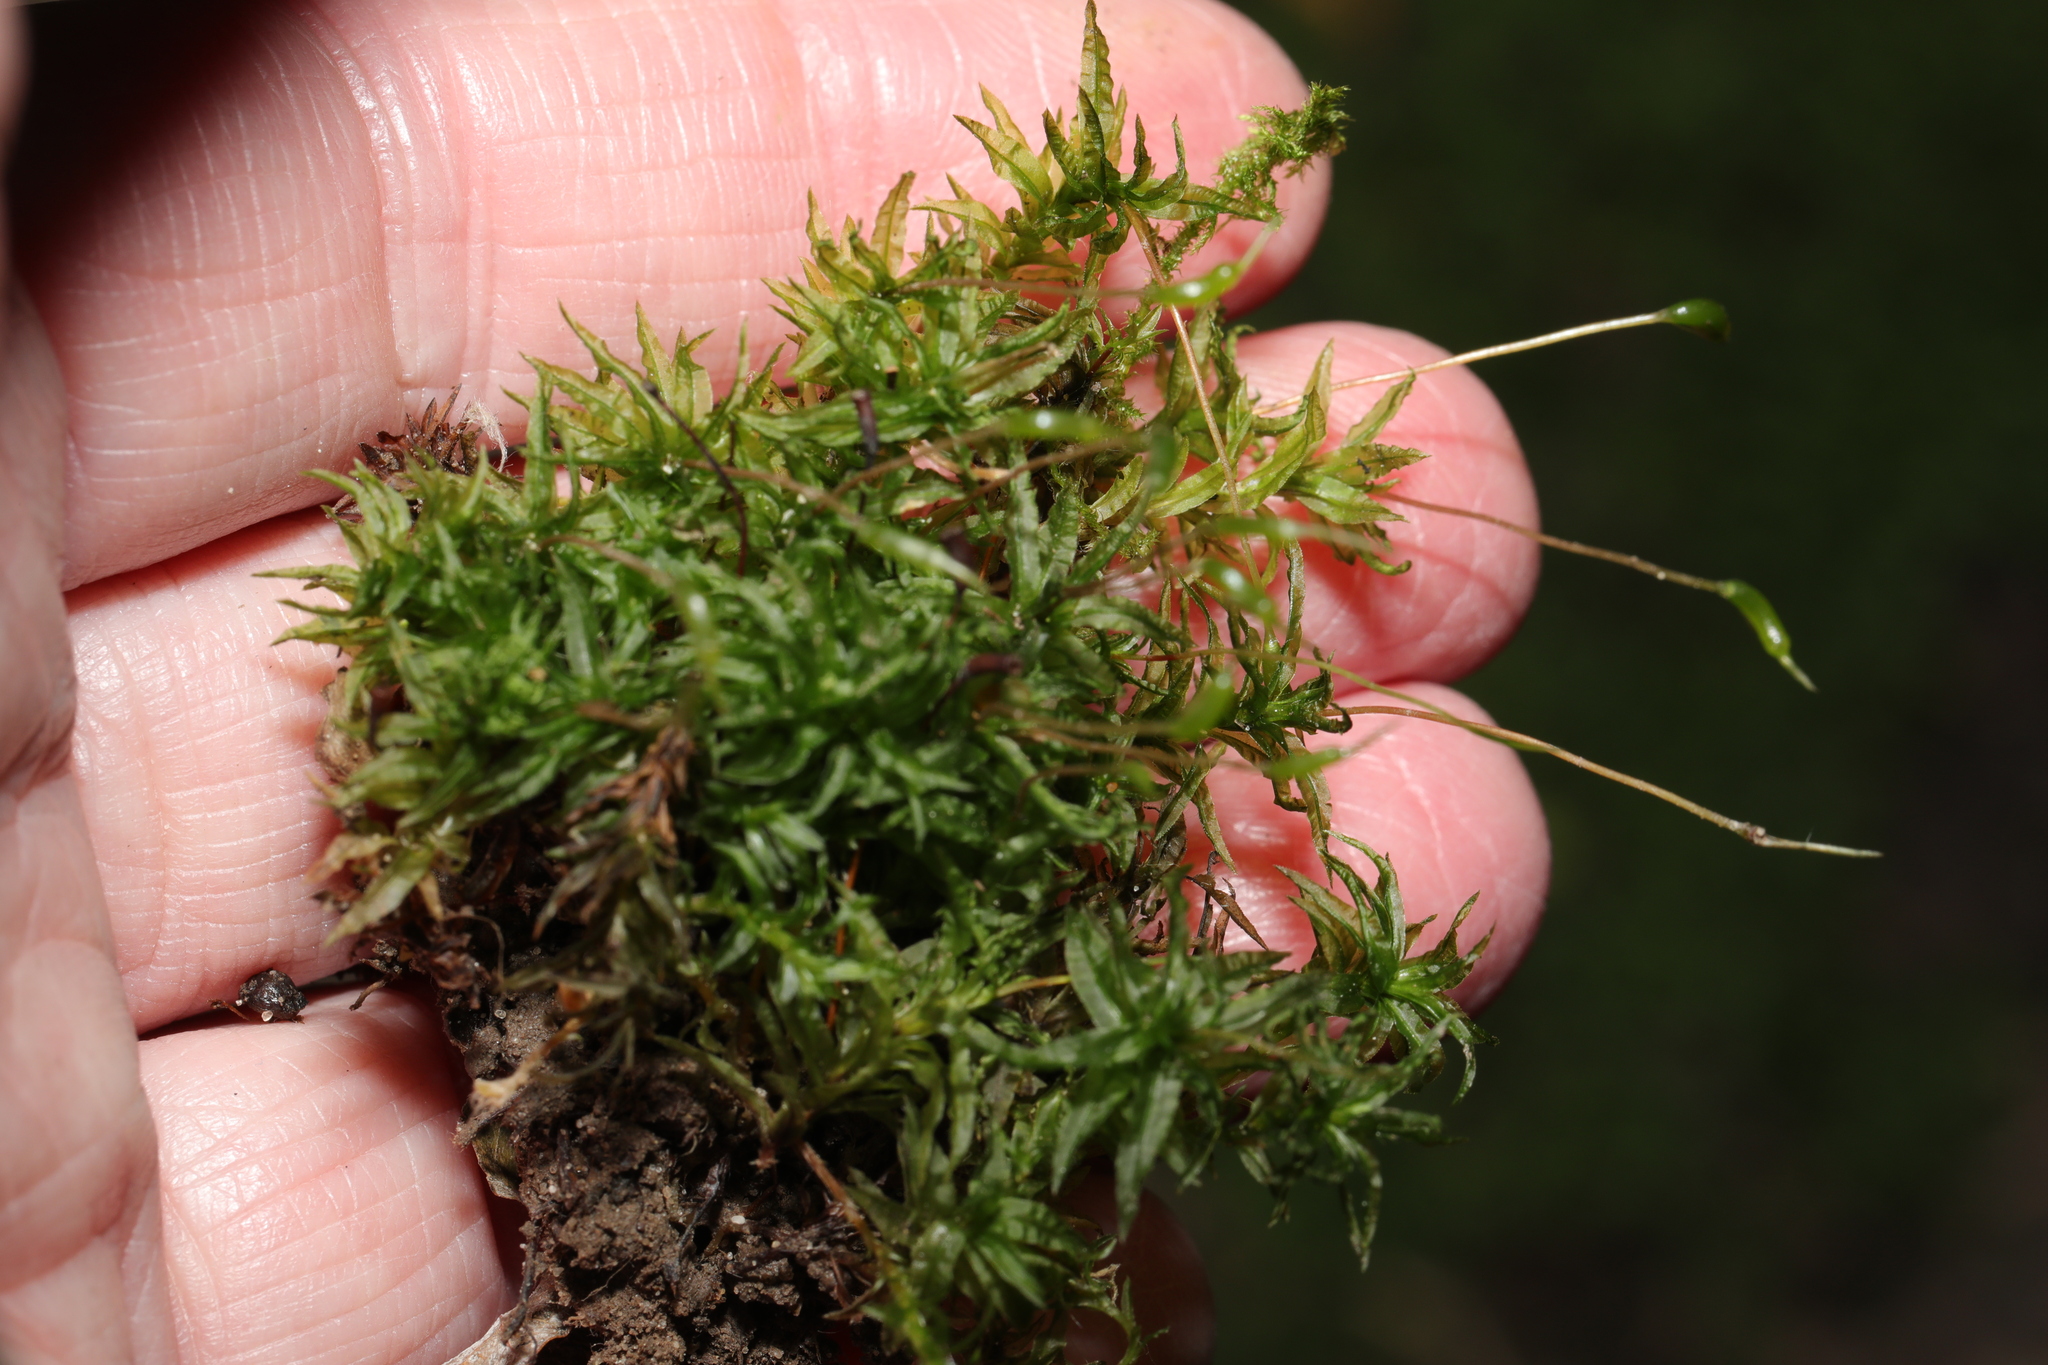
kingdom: Plantae
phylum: Bryophyta
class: Polytrichopsida
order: Polytrichales
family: Polytrichaceae
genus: Atrichum
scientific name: Atrichum undulatum
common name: Common smoothcap
